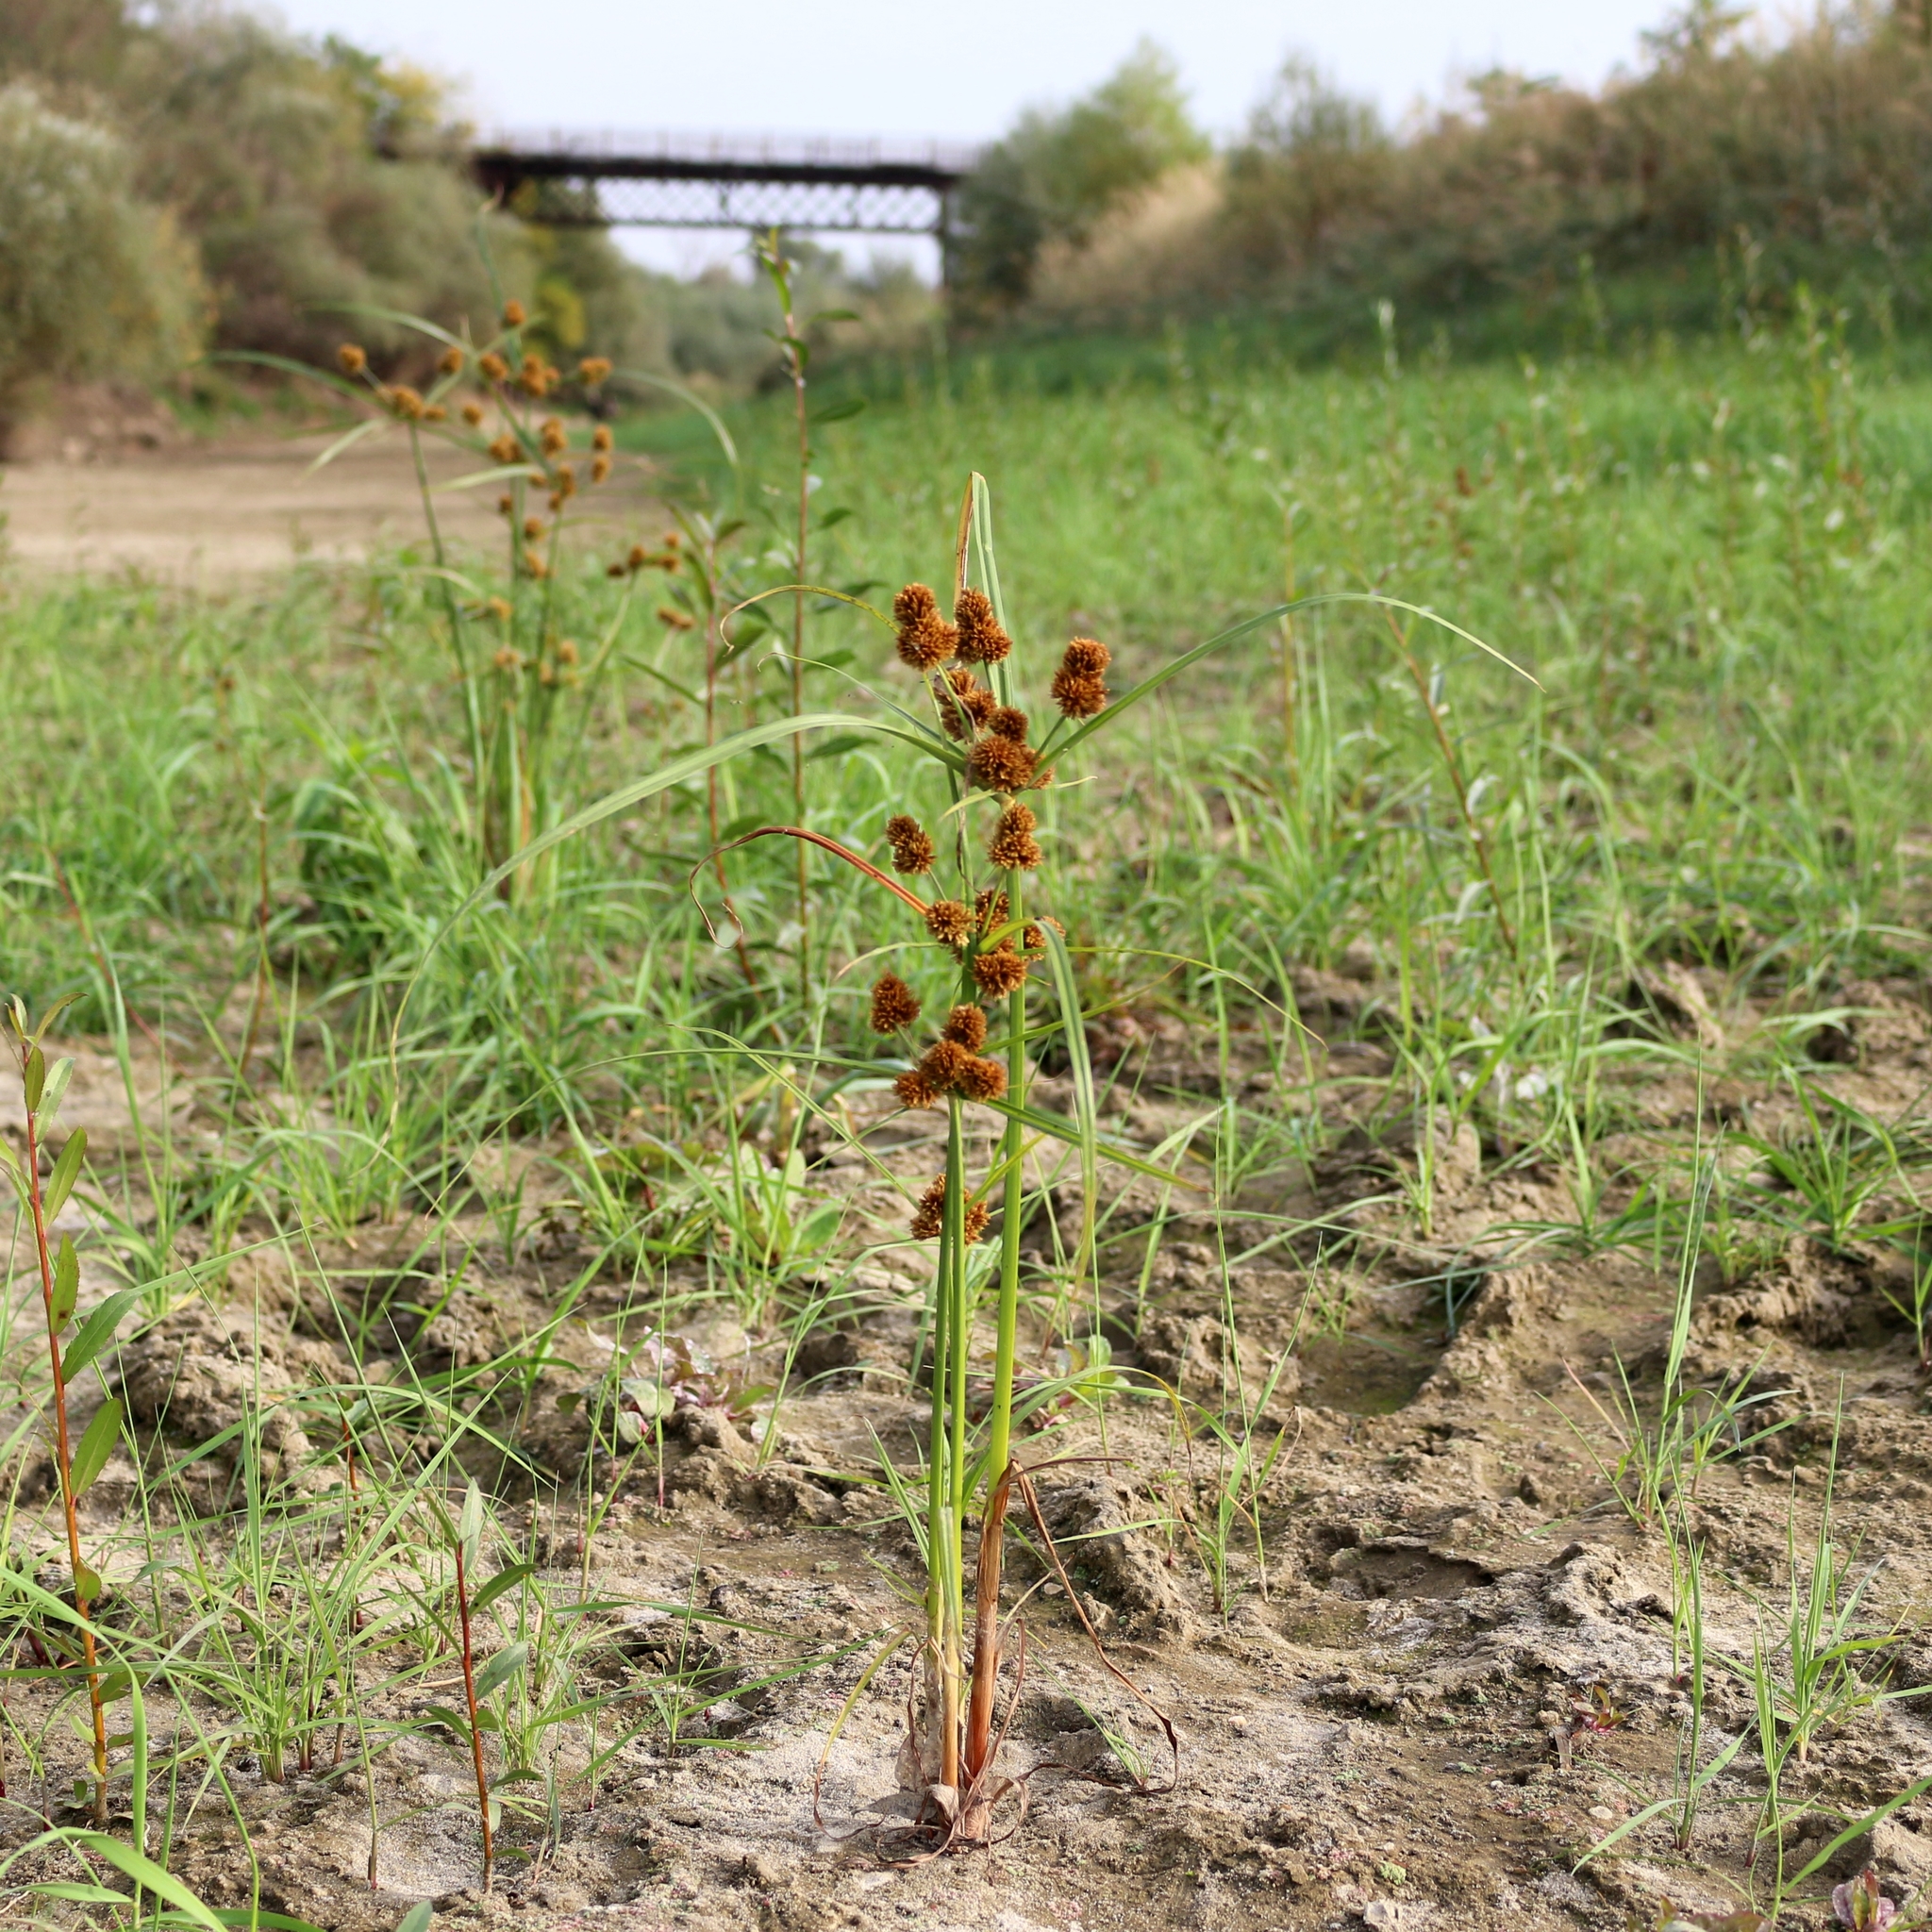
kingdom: Plantae
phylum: Tracheophyta
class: Liliopsida
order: Poales
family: Cyperaceae
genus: Cyperus
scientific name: Cyperus glomeratus
